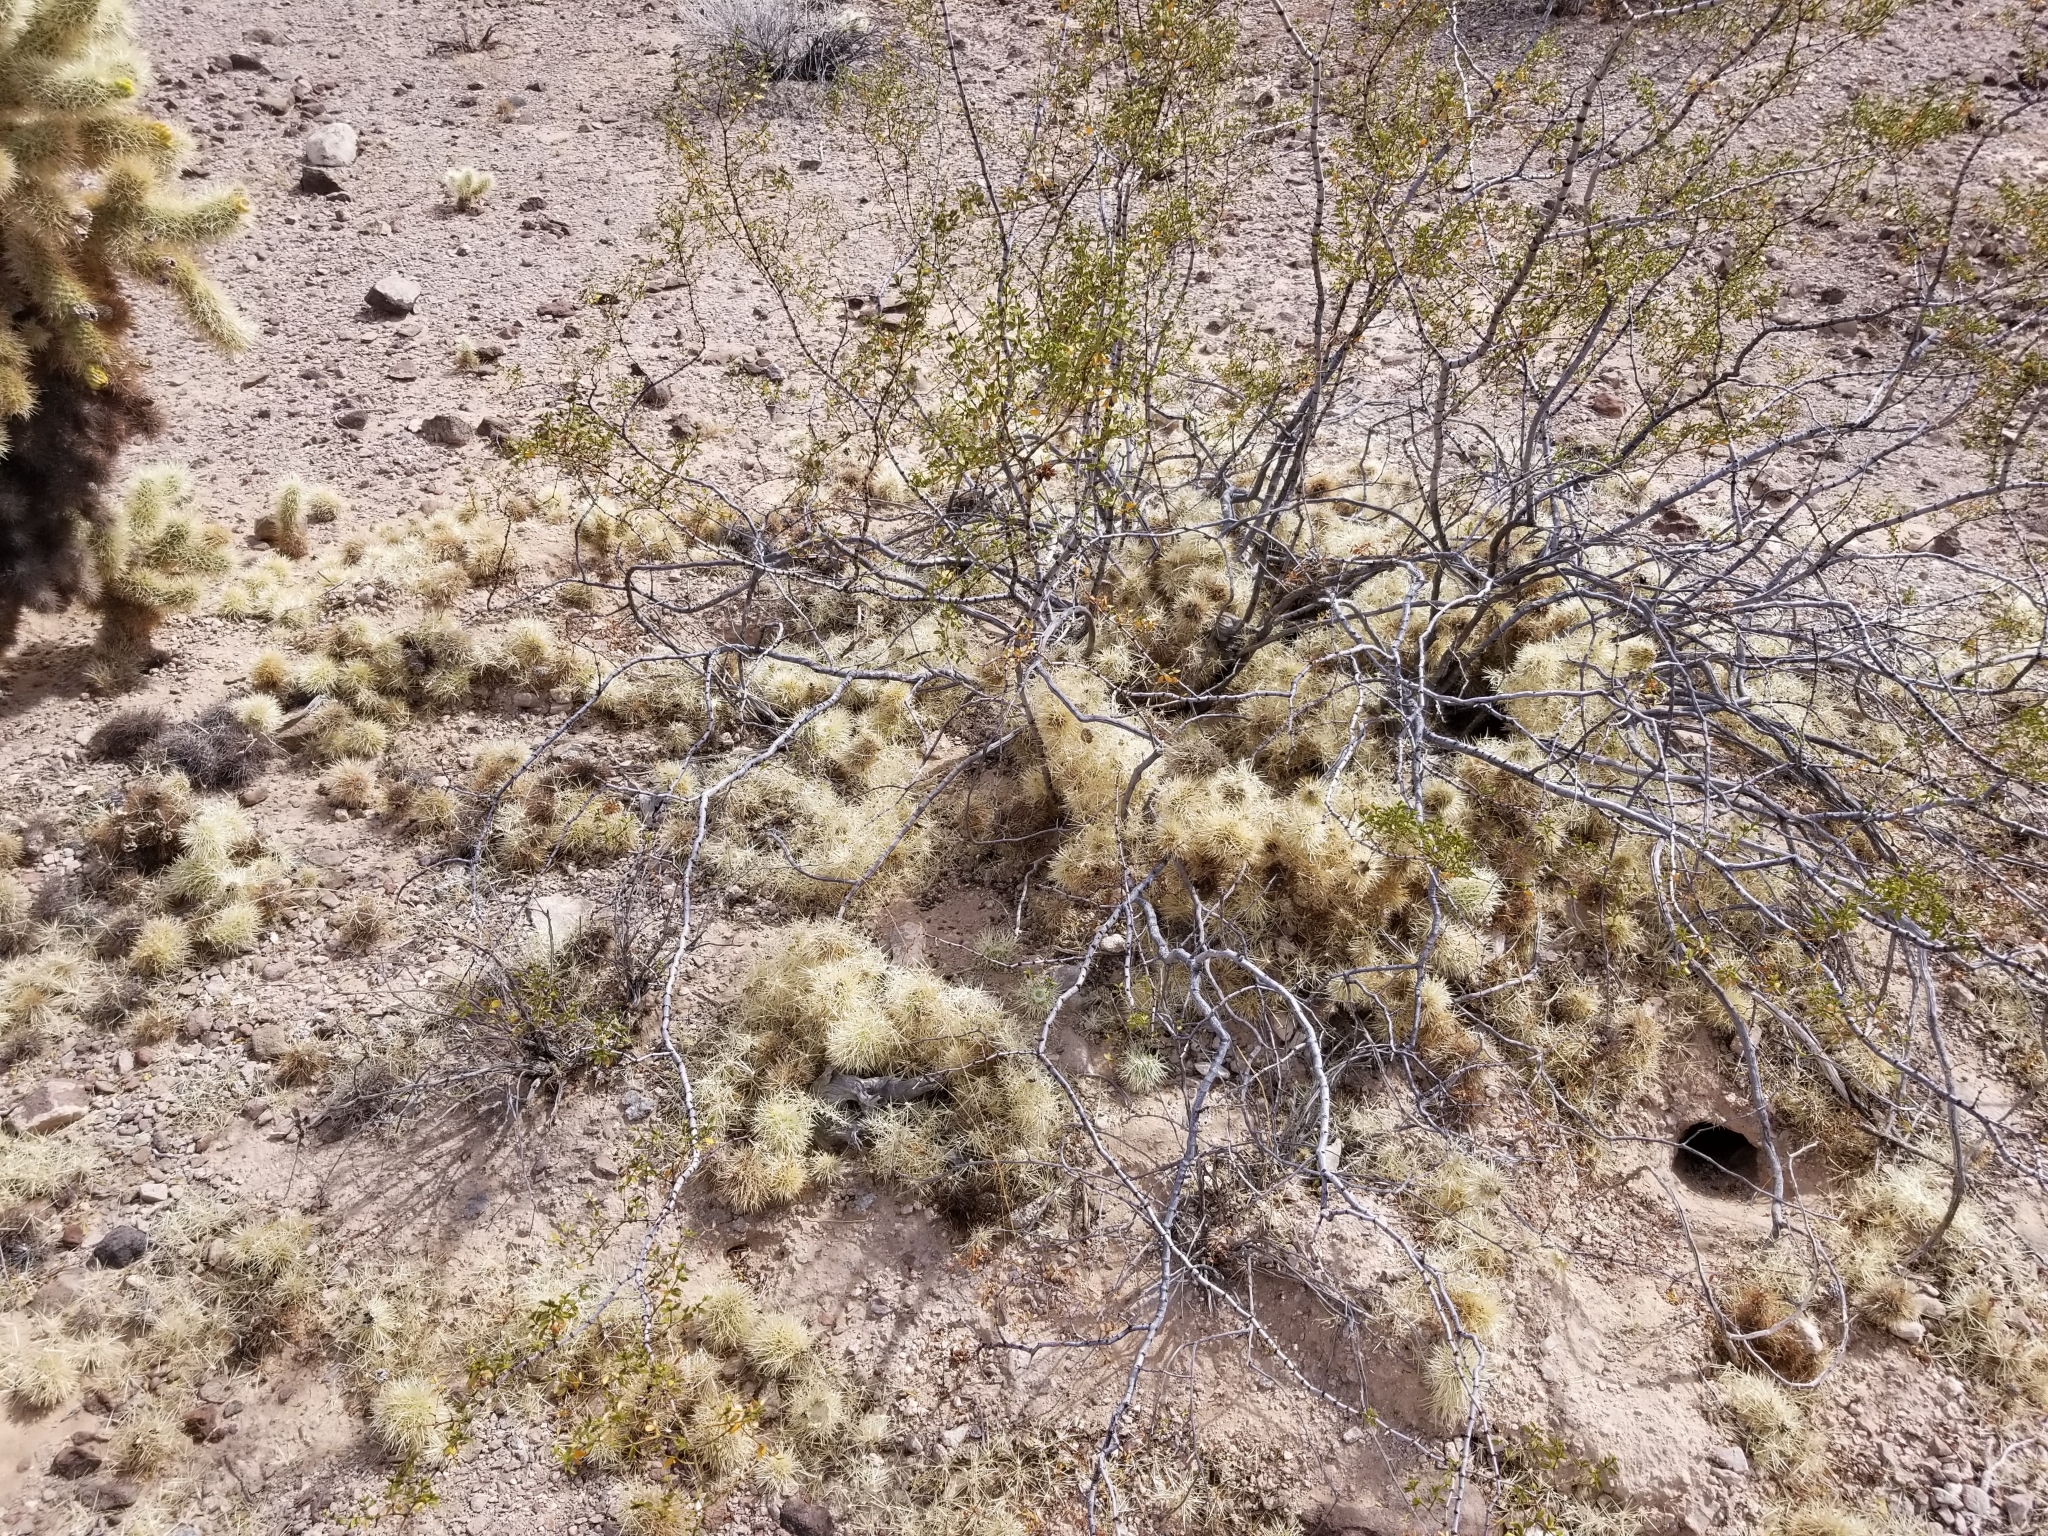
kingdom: Plantae
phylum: Tracheophyta
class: Magnoliopsida
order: Caryophyllales
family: Cactaceae
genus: Cylindropuntia
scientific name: Cylindropuntia fosbergii
